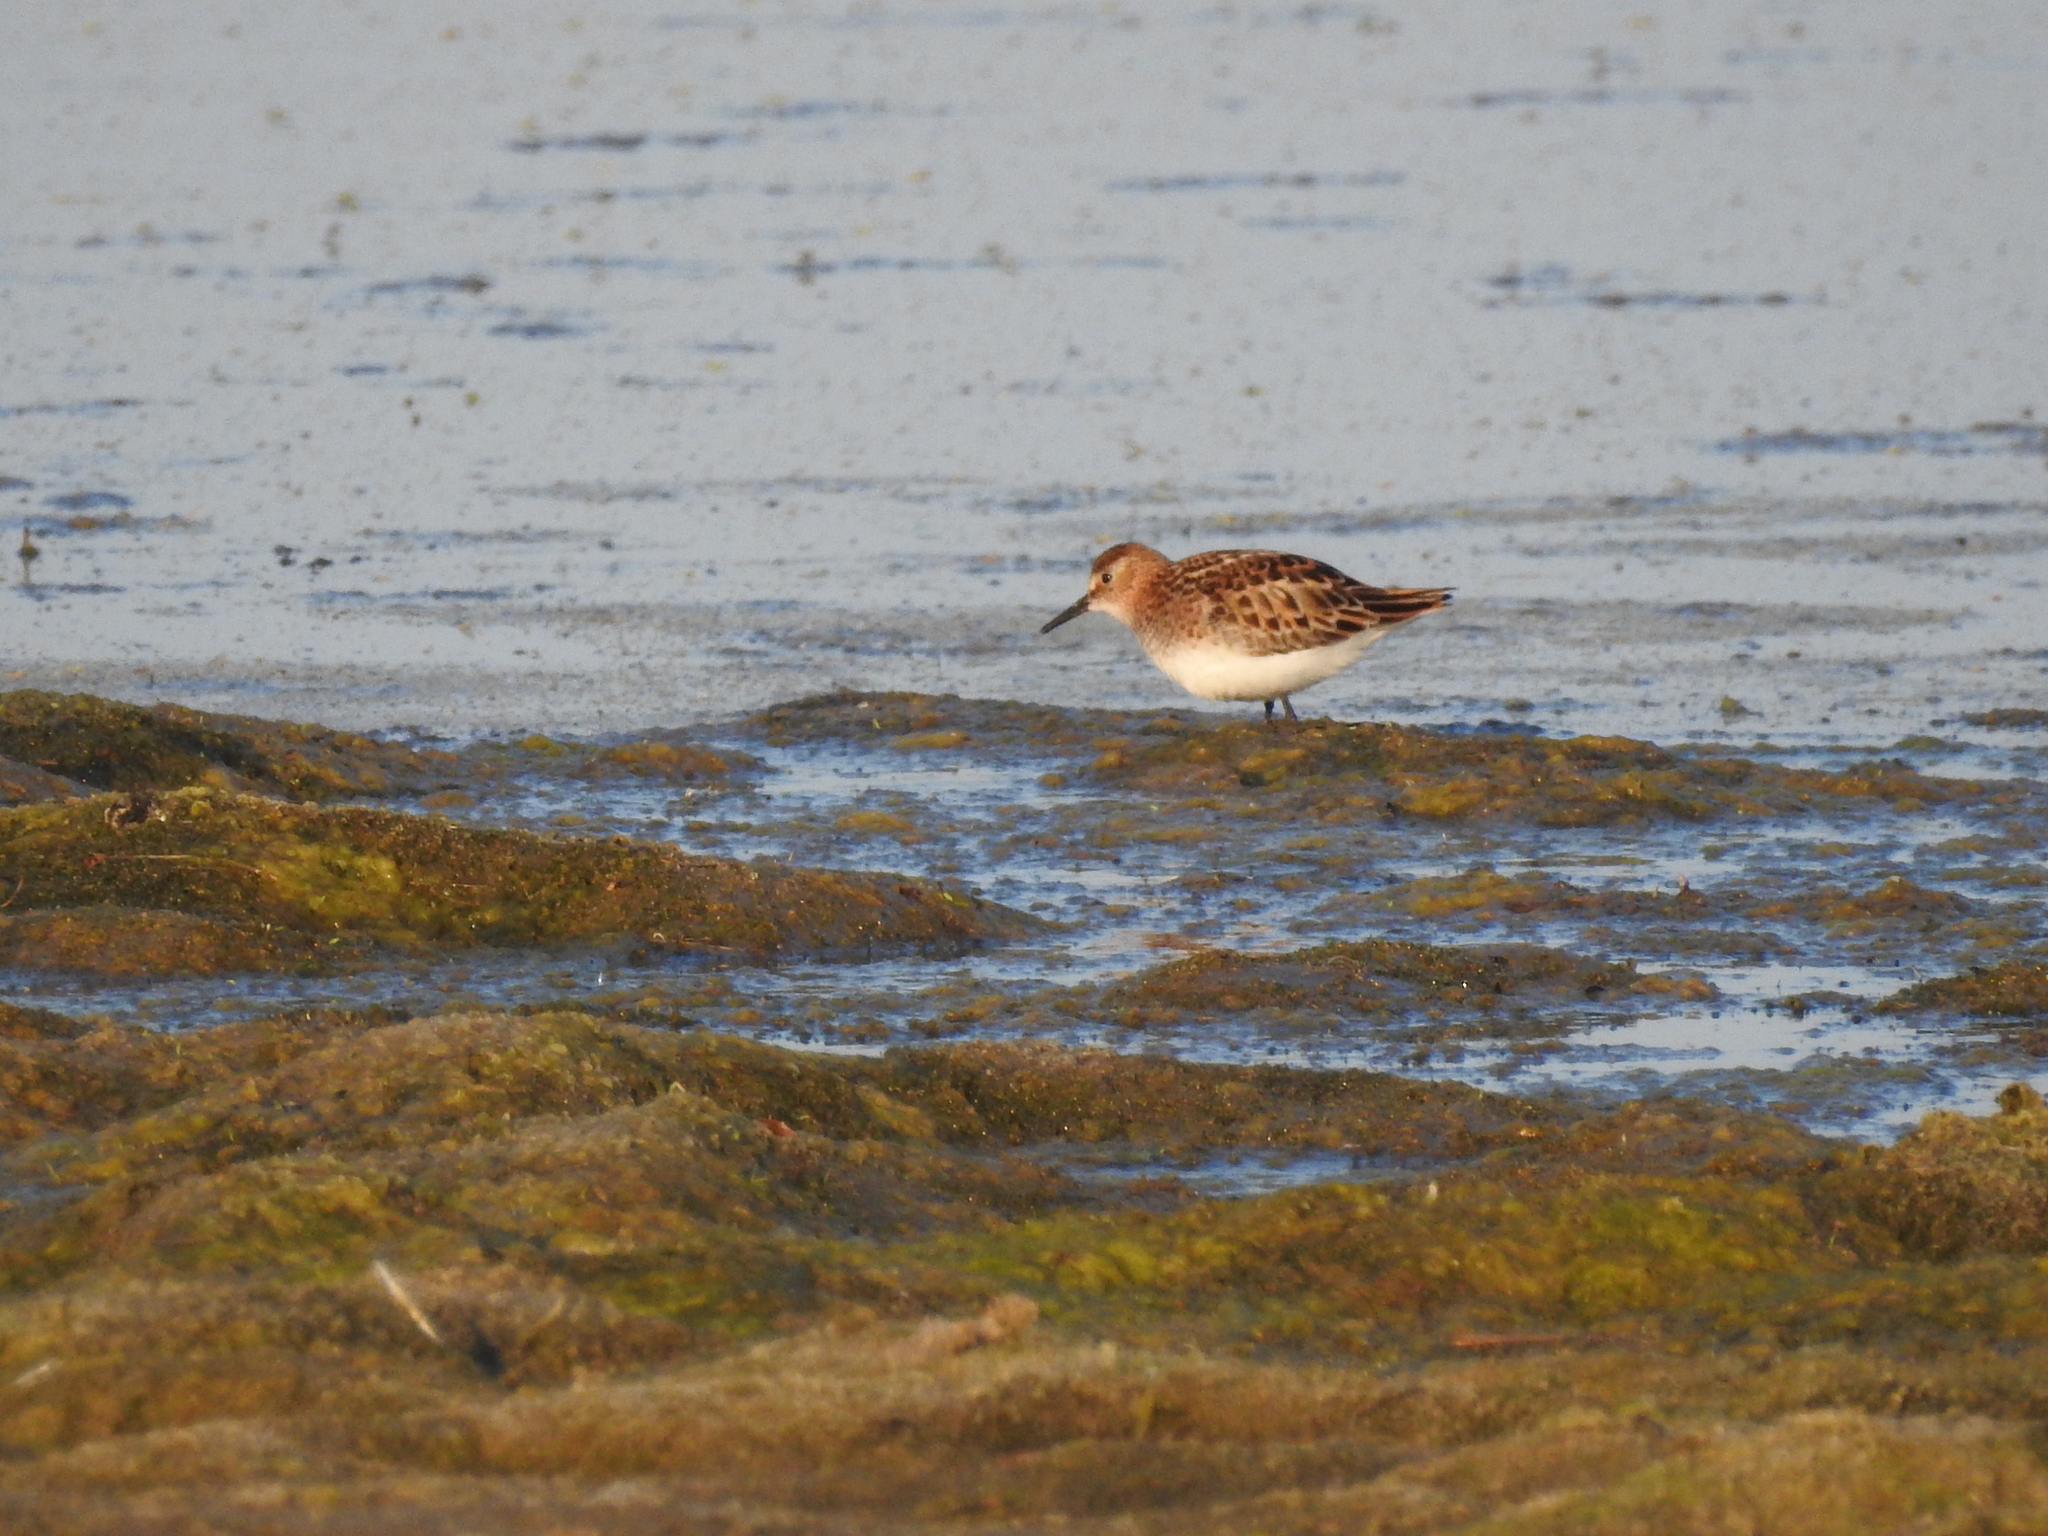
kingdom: Animalia
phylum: Chordata
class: Aves
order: Charadriiformes
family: Scolopacidae
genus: Calidris
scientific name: Calidris minuta
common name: Little stint
